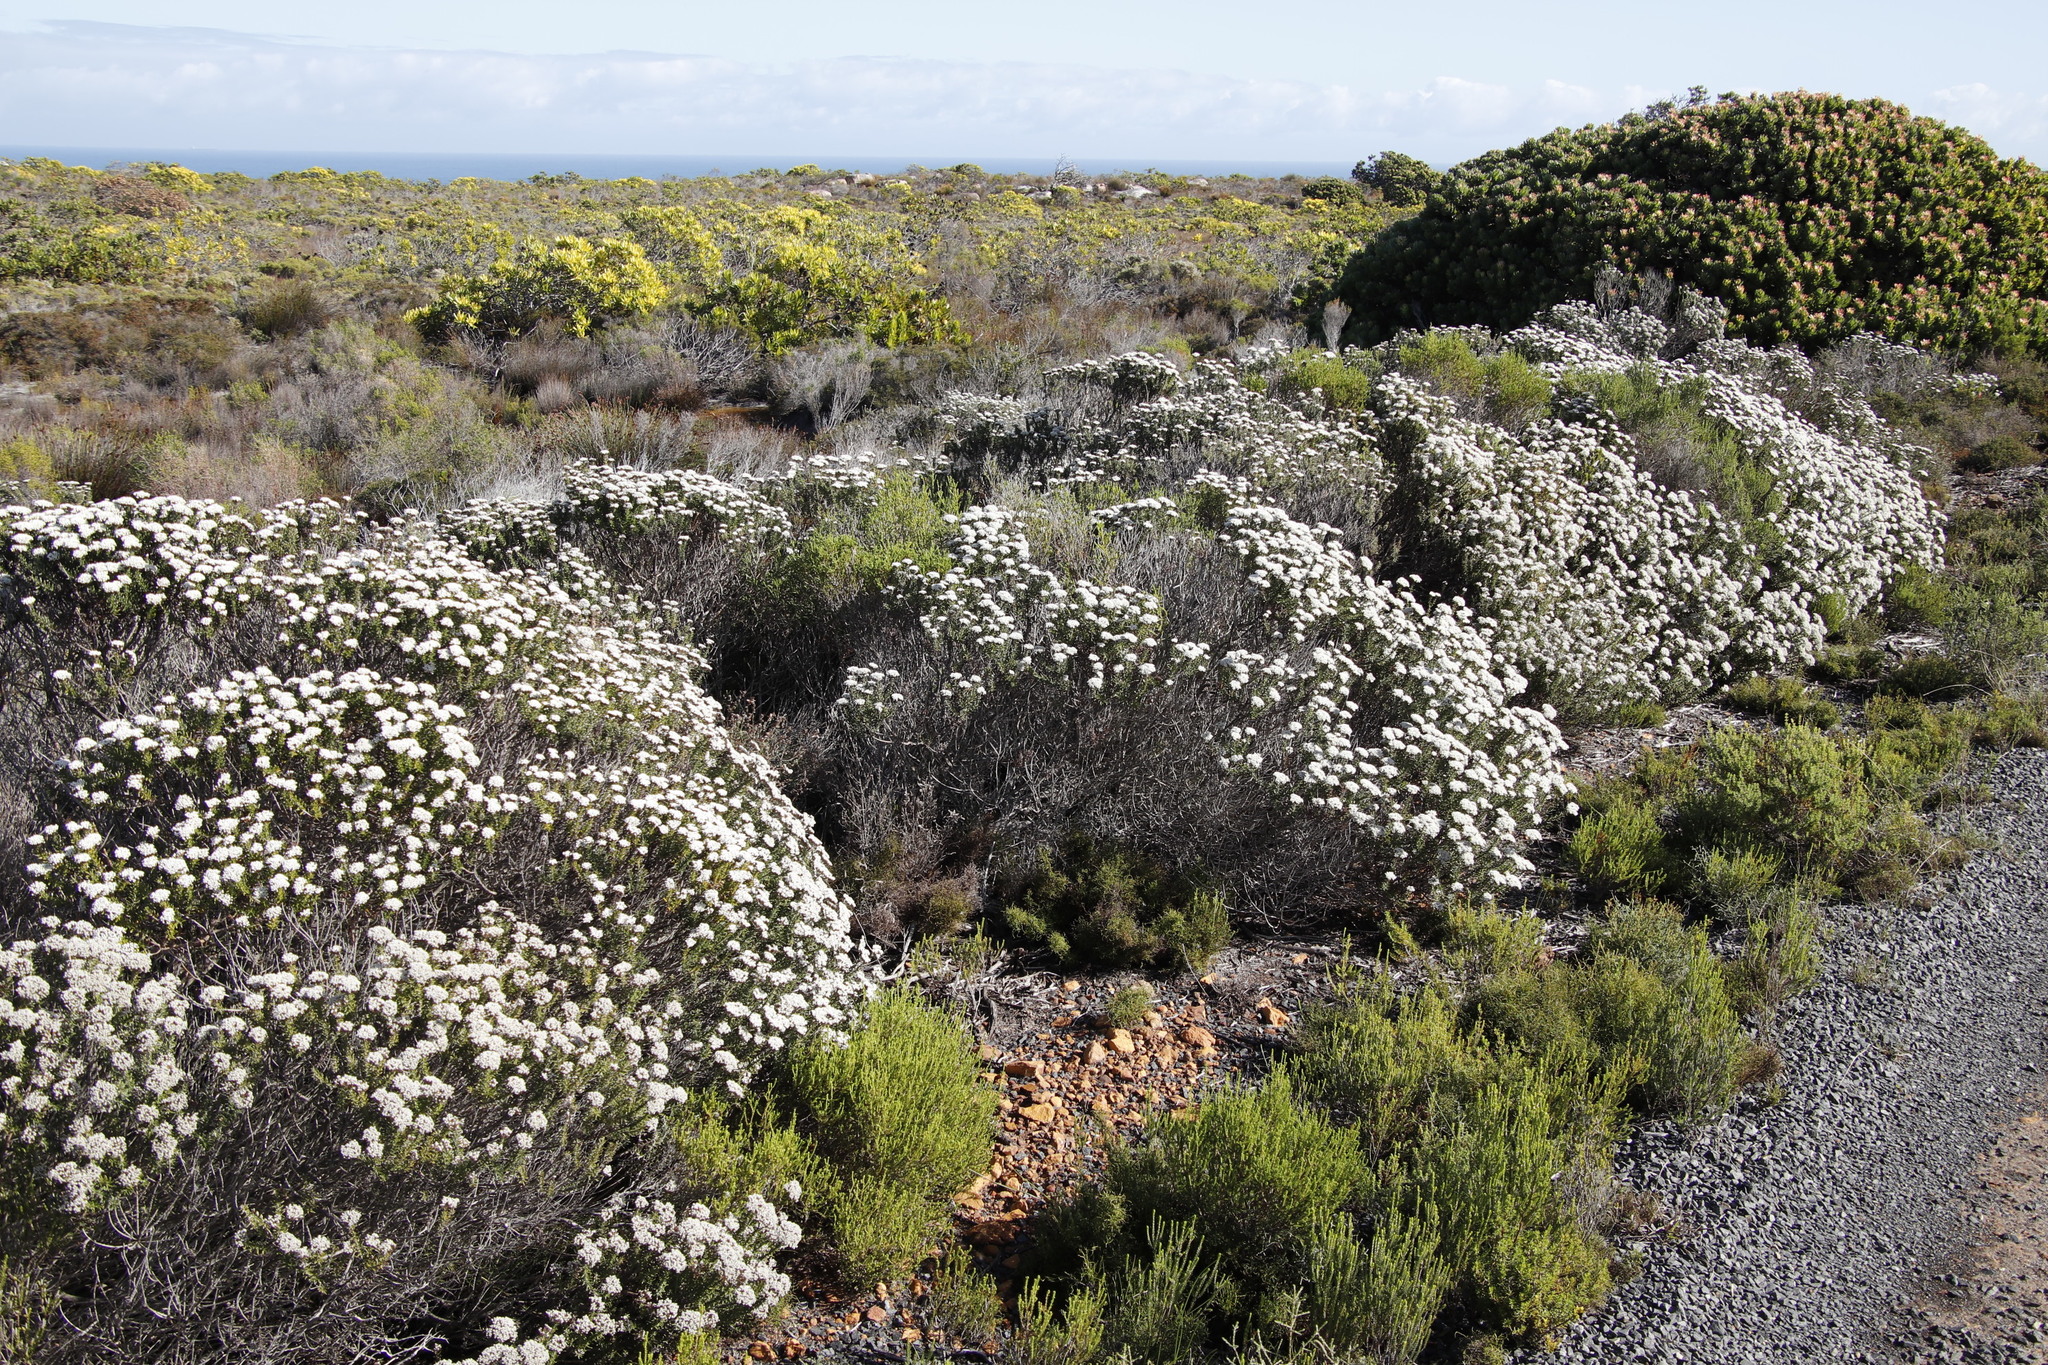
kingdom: Plantae
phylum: Tracheophyta
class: Magnoliopsida
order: Asterales
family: Asteraceae
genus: Metalasia
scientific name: Metalasia densa
